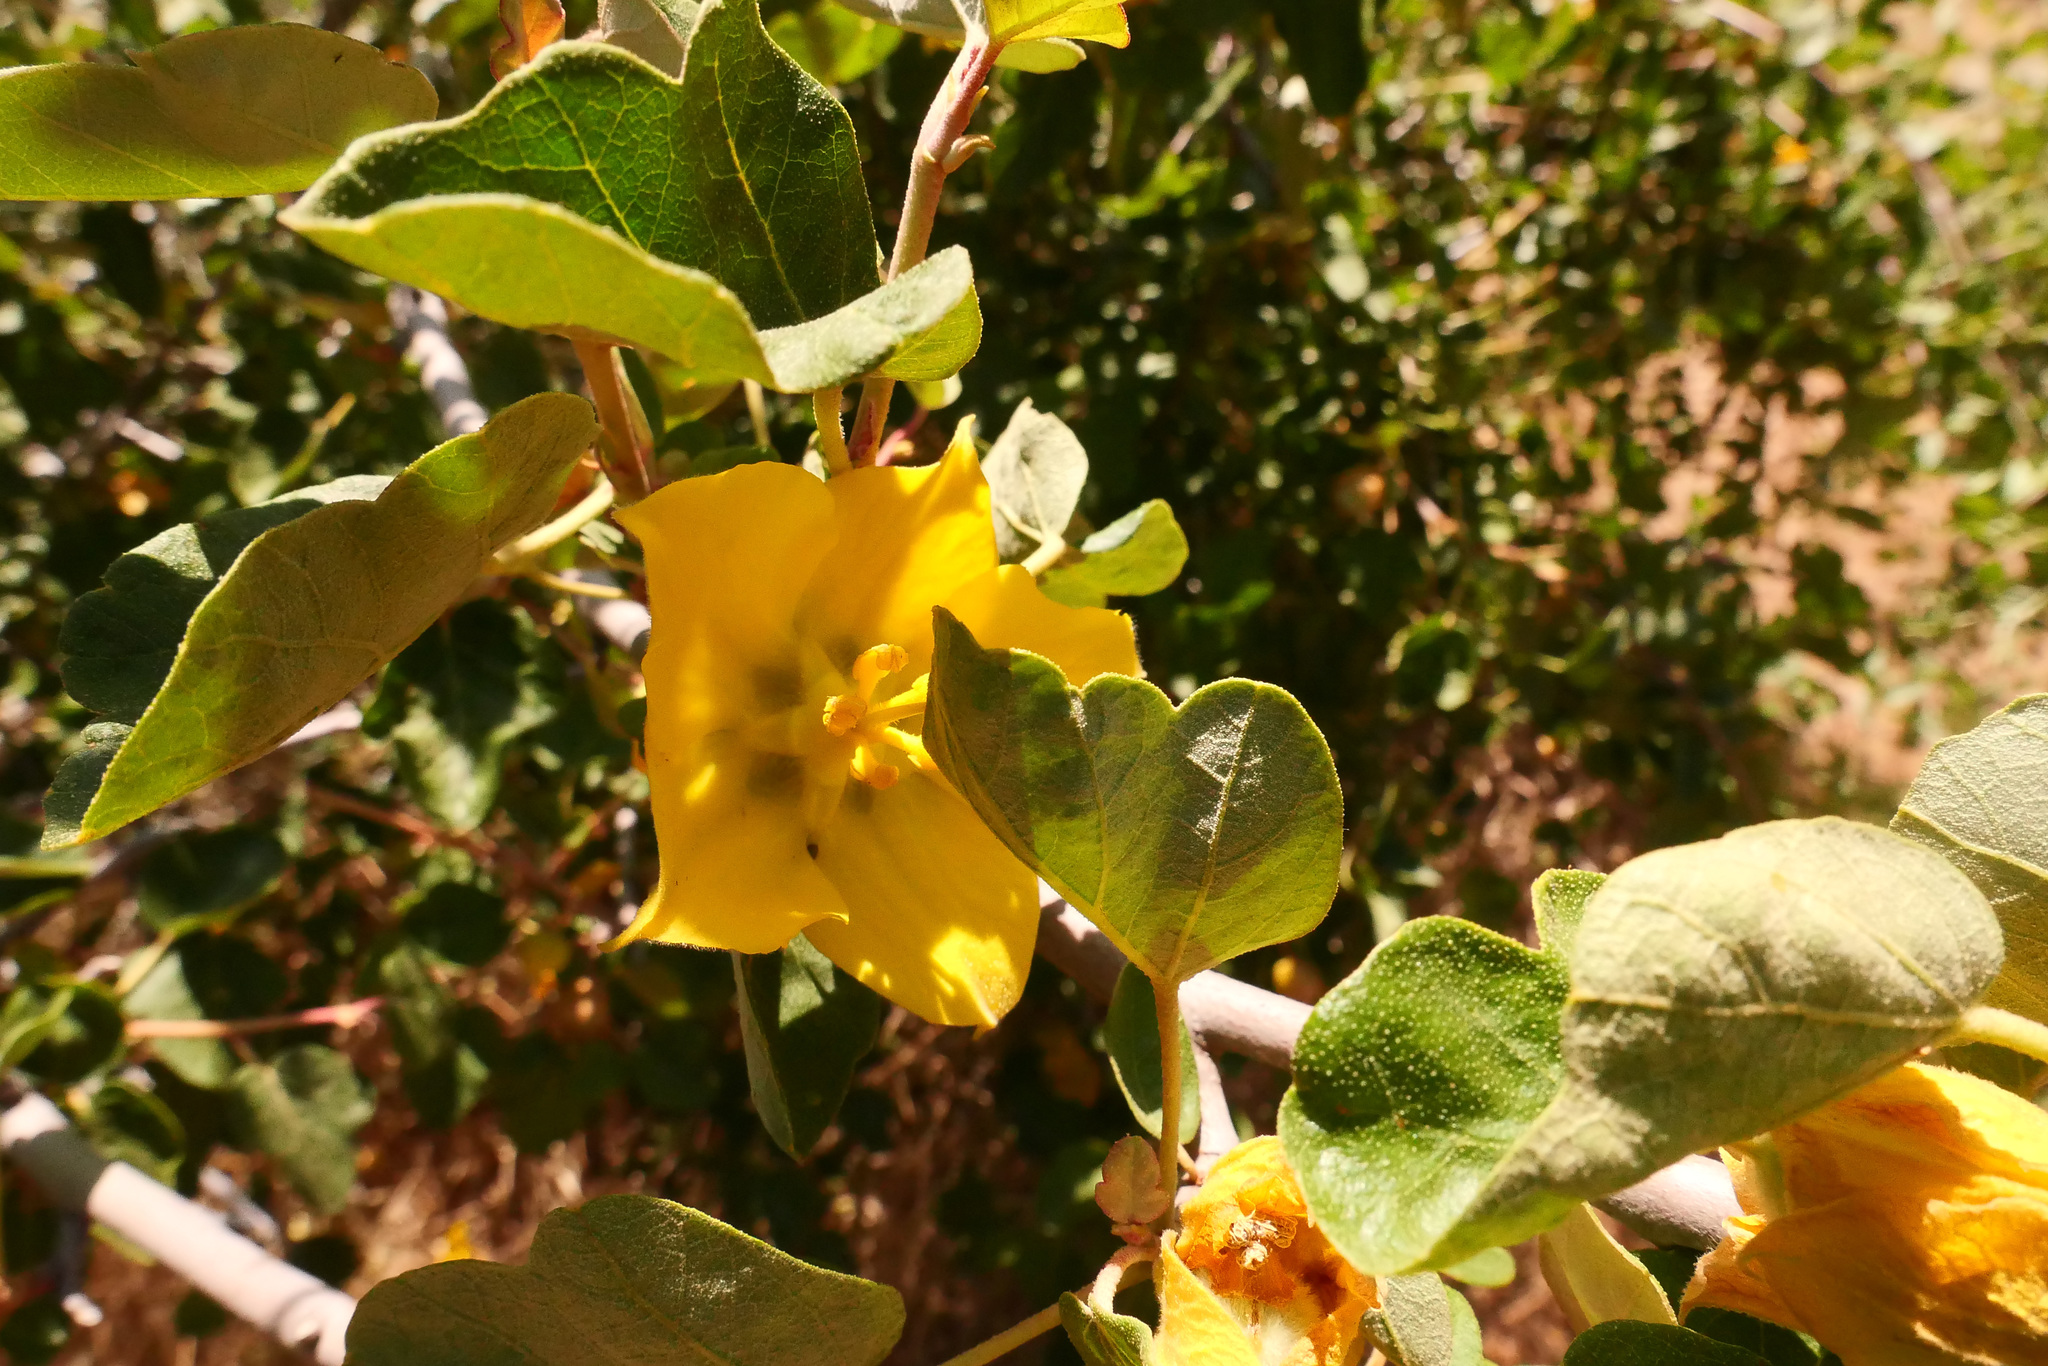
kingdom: Plantae
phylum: Tracheophyta
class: Magnoliopsida
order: Malvales
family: Malvaceae
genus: Fremontodendron
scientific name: Fremontodendron californicum
